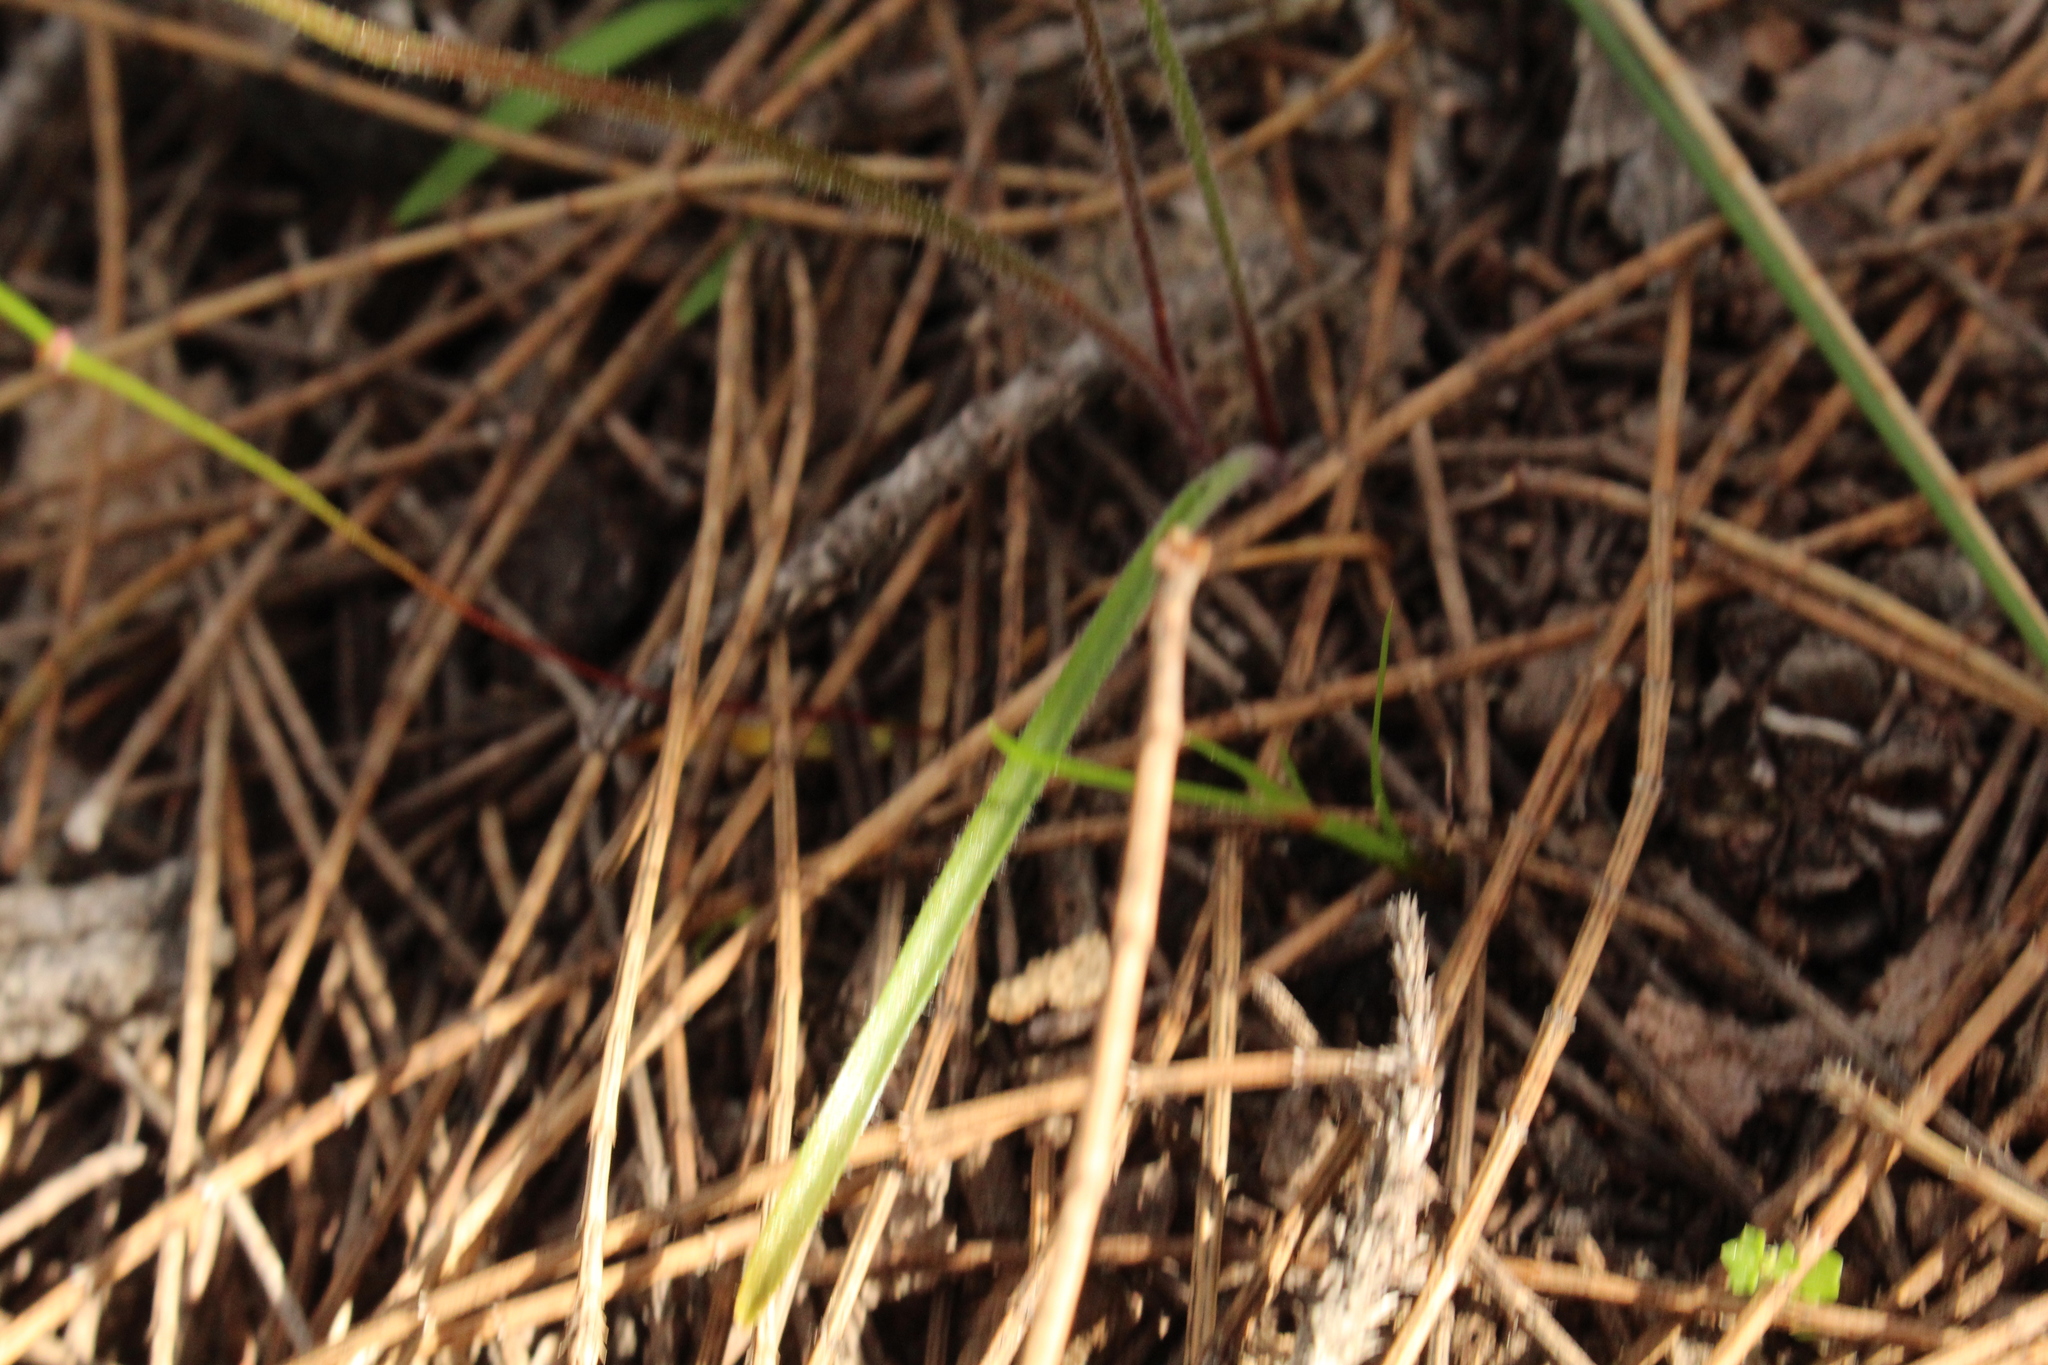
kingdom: Plantae
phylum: Tracheophyta
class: Liliopsida
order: Asparagales
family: Orchidaceae
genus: Caladenia
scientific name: Caladenia cairnsiana
